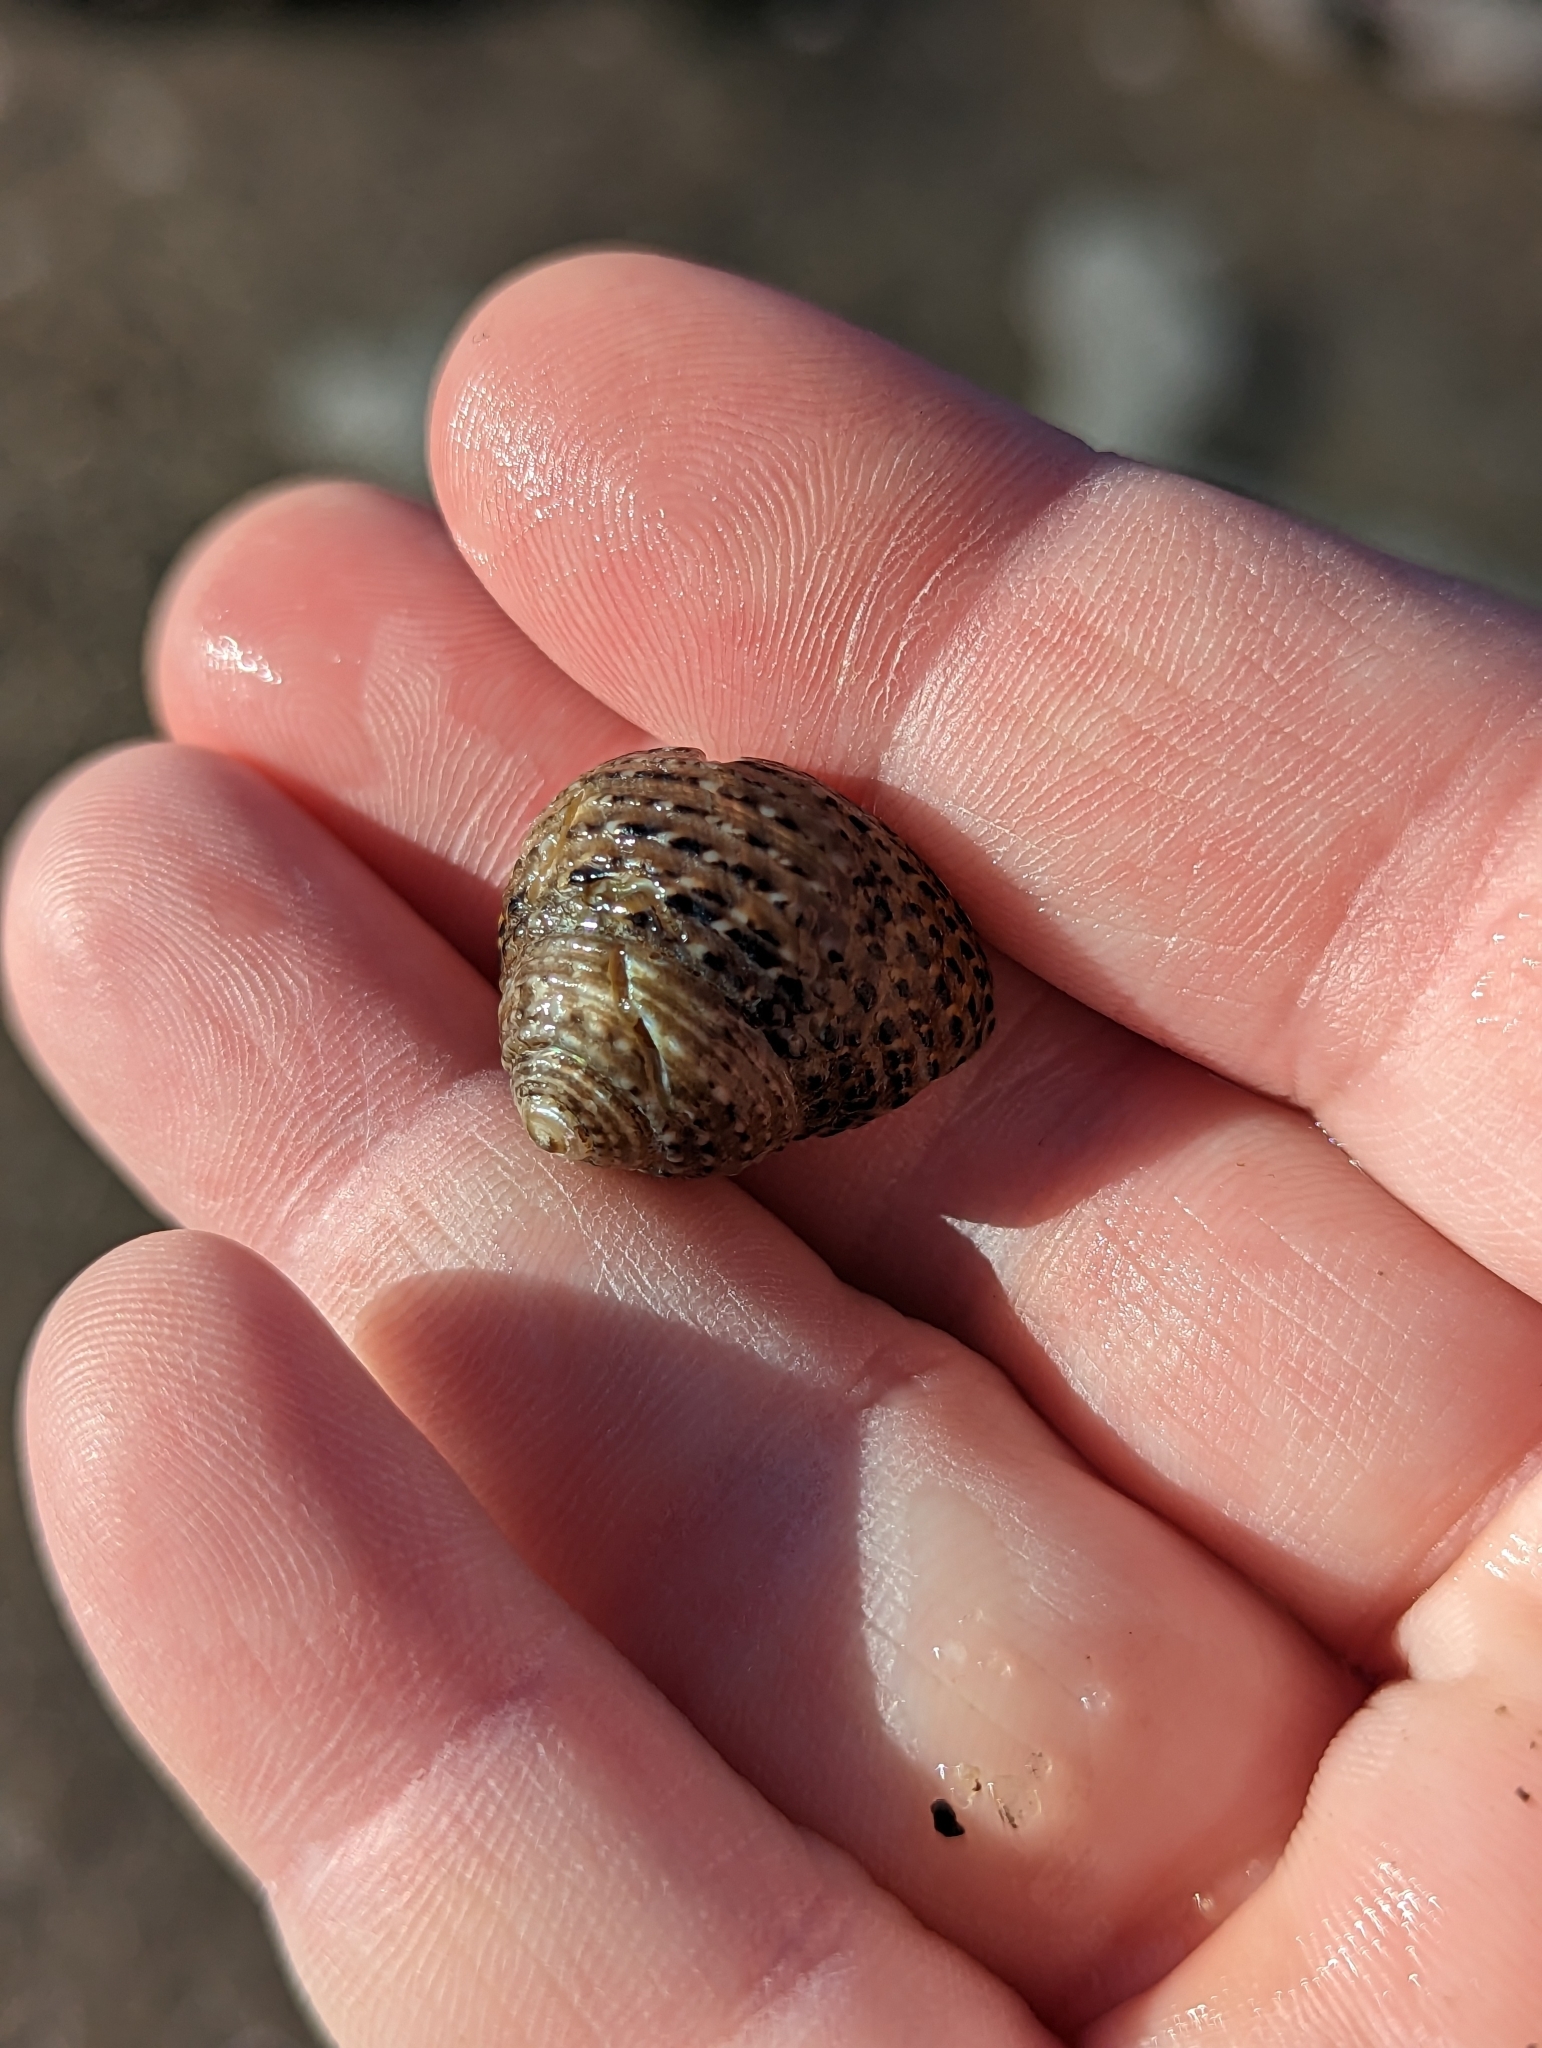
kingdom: Animalia
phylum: Mollusca
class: Gastropoda
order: Trochida
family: Tegulidae
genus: Tegula
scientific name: Tegula eiseni
